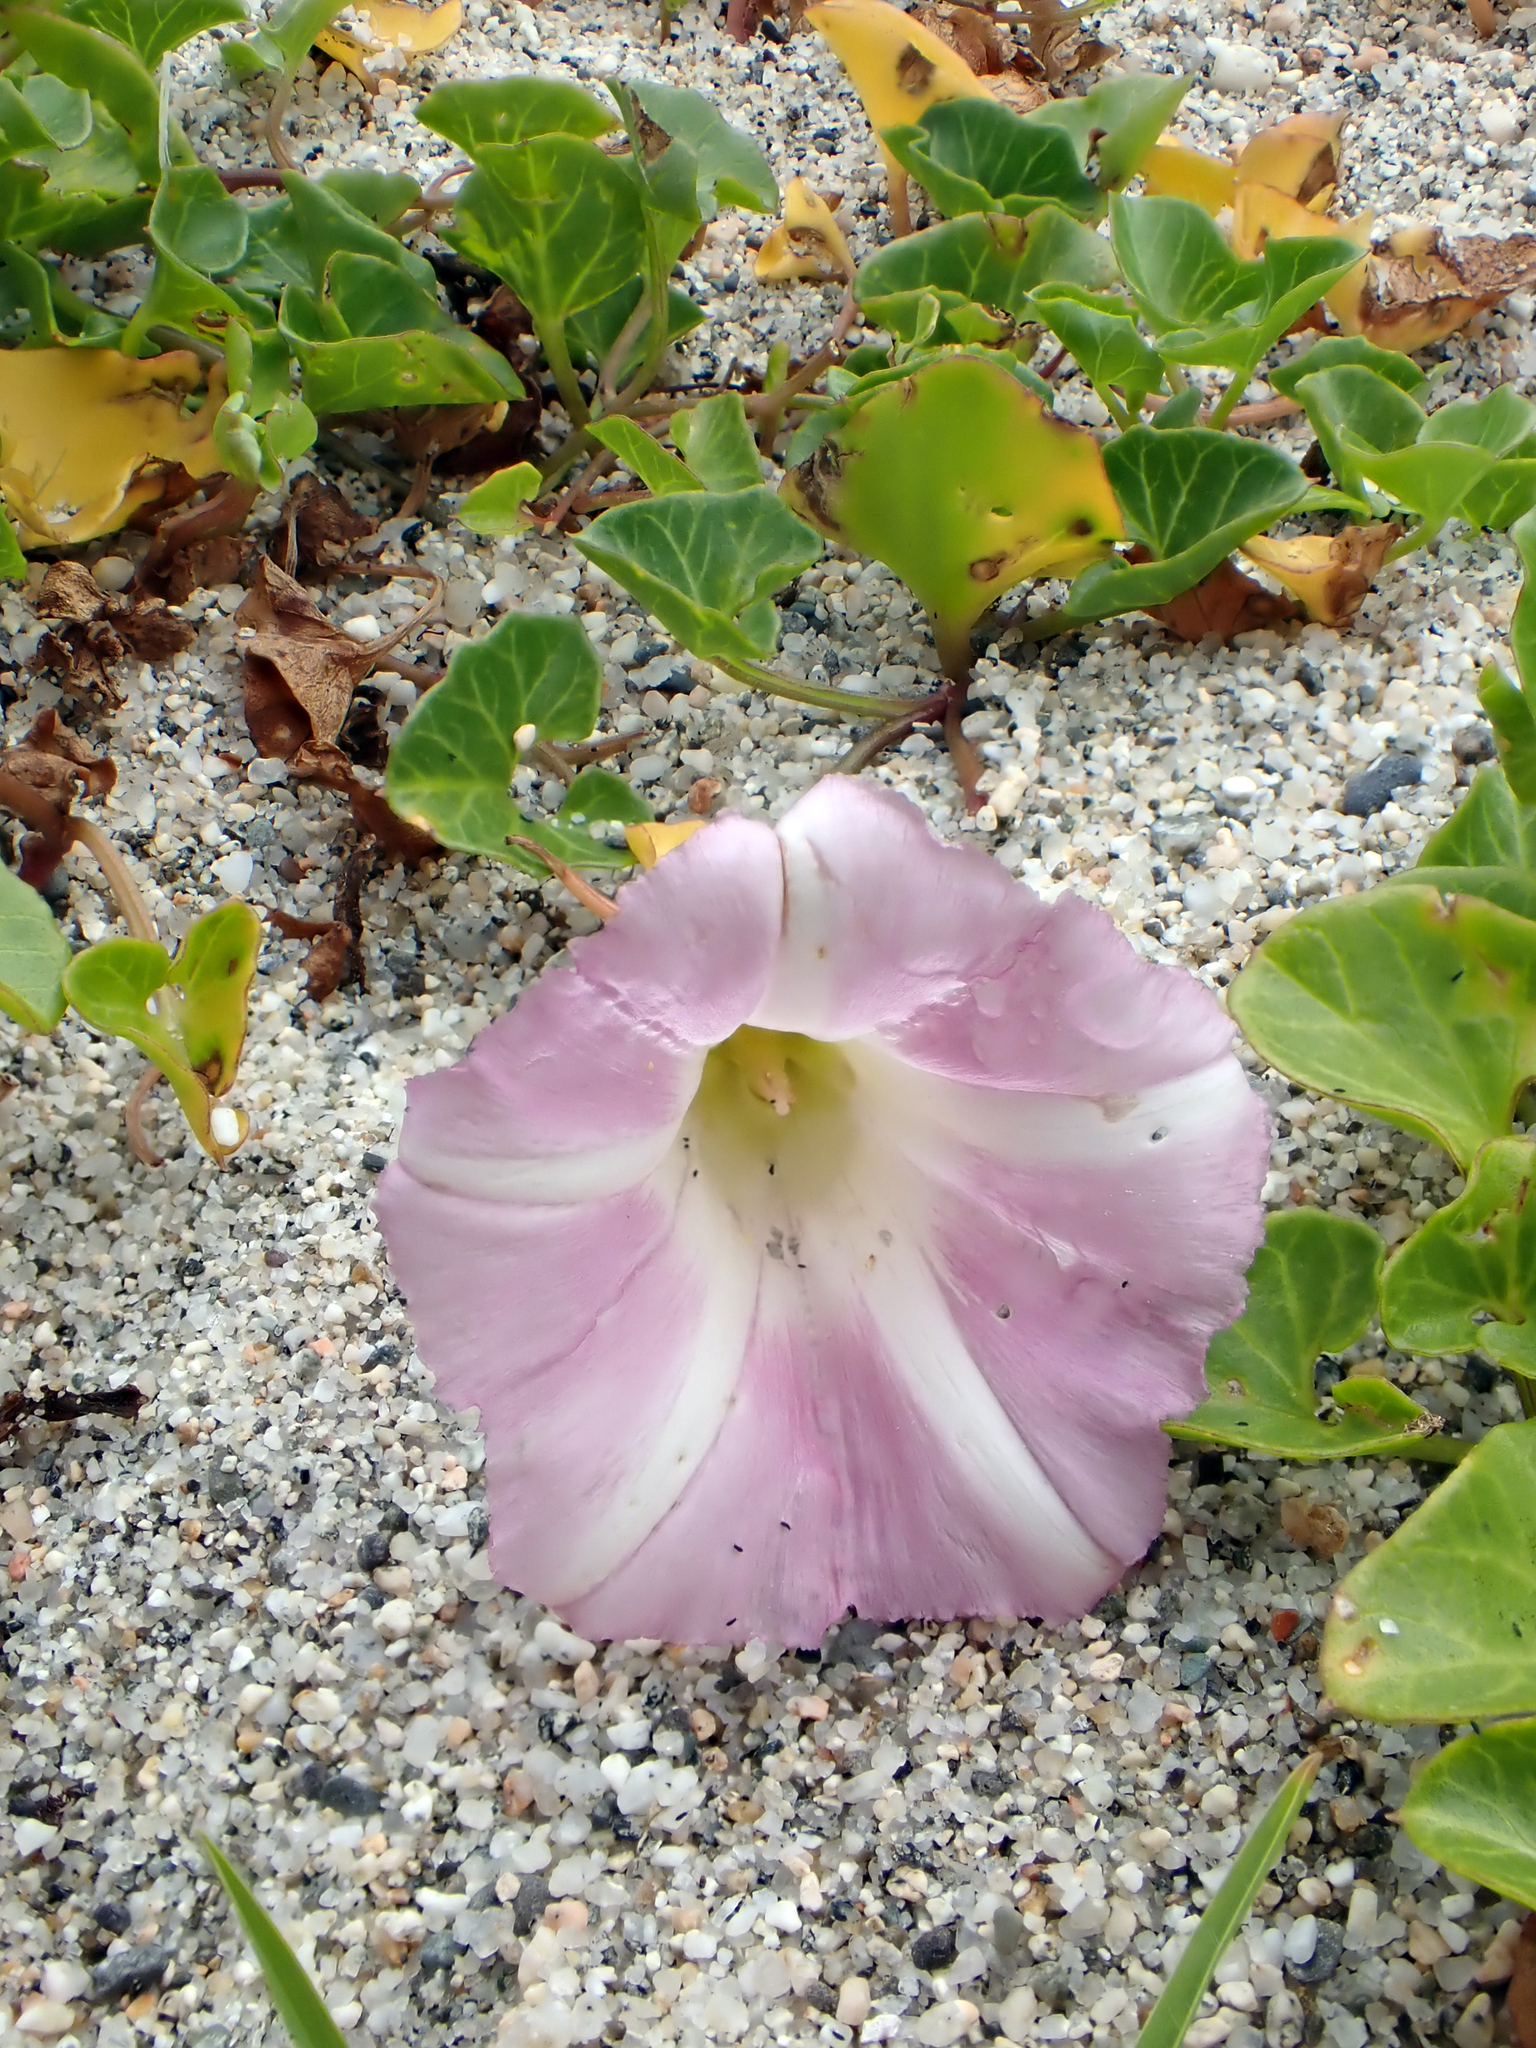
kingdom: Plantae
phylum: Tracheophyta
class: Magnoliopsida
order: Solanales
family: Convolvulaceae
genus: Calystegia
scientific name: Calystegia soldanella
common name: Sea bindweed
